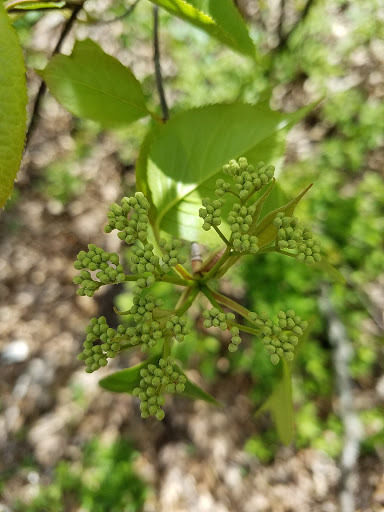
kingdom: Plantae
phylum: Tracheophyta
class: Magnoliopsida
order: Dipsacales
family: Viburnaceae
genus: Viburnum
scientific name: Viburnum lentago
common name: Black haw
